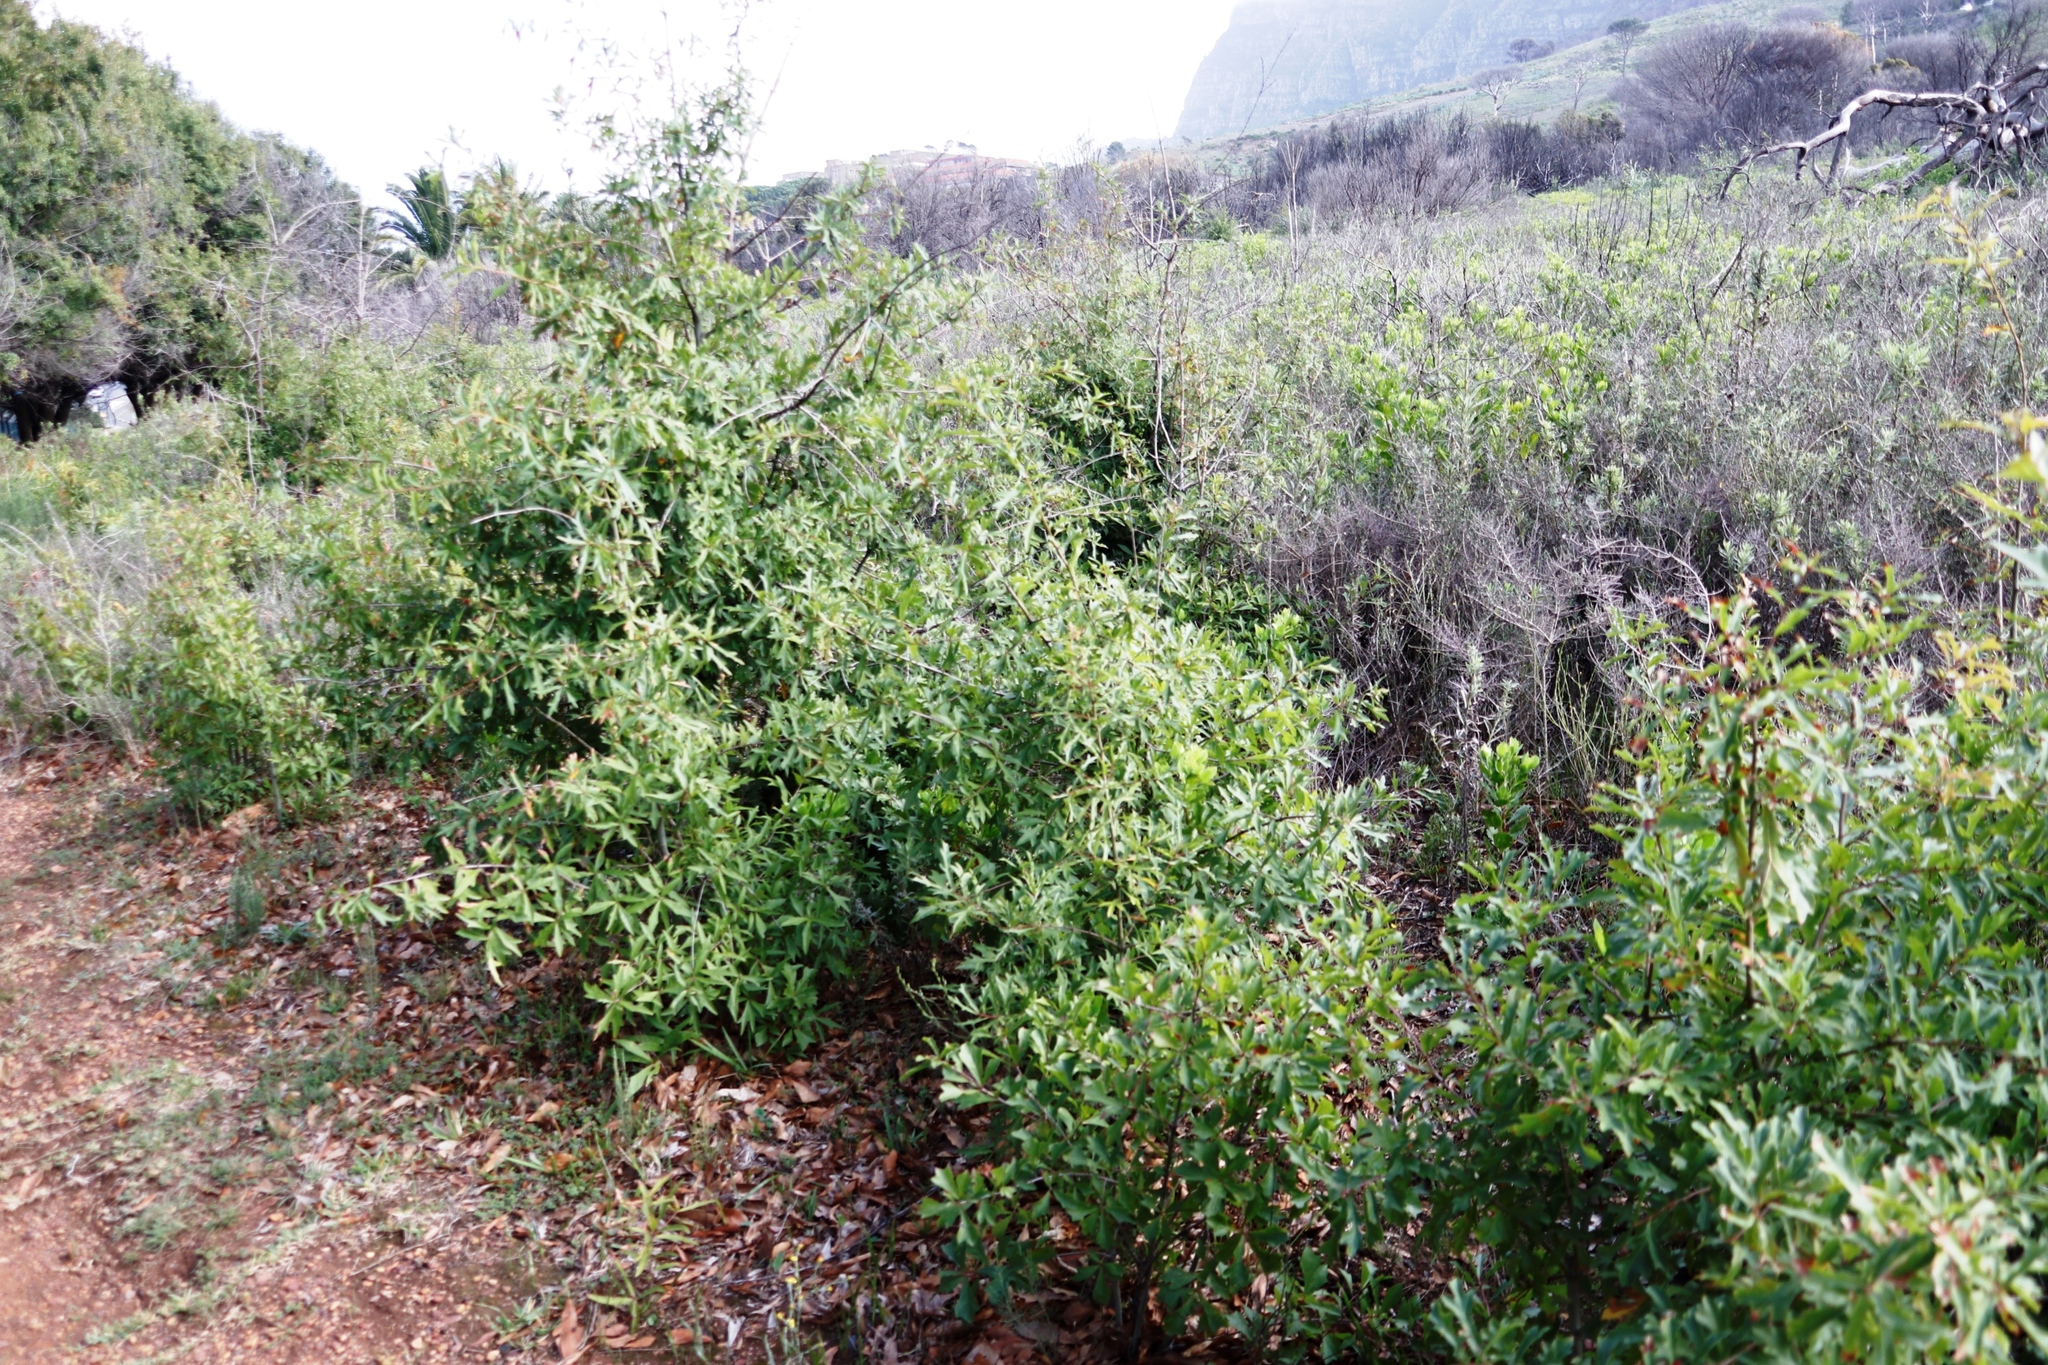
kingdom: Plantae
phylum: Tracheophyta
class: Magnoliopsida
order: Fagales
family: Fagaceae
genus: Quercus
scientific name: Quercus nigra
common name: Water oak
